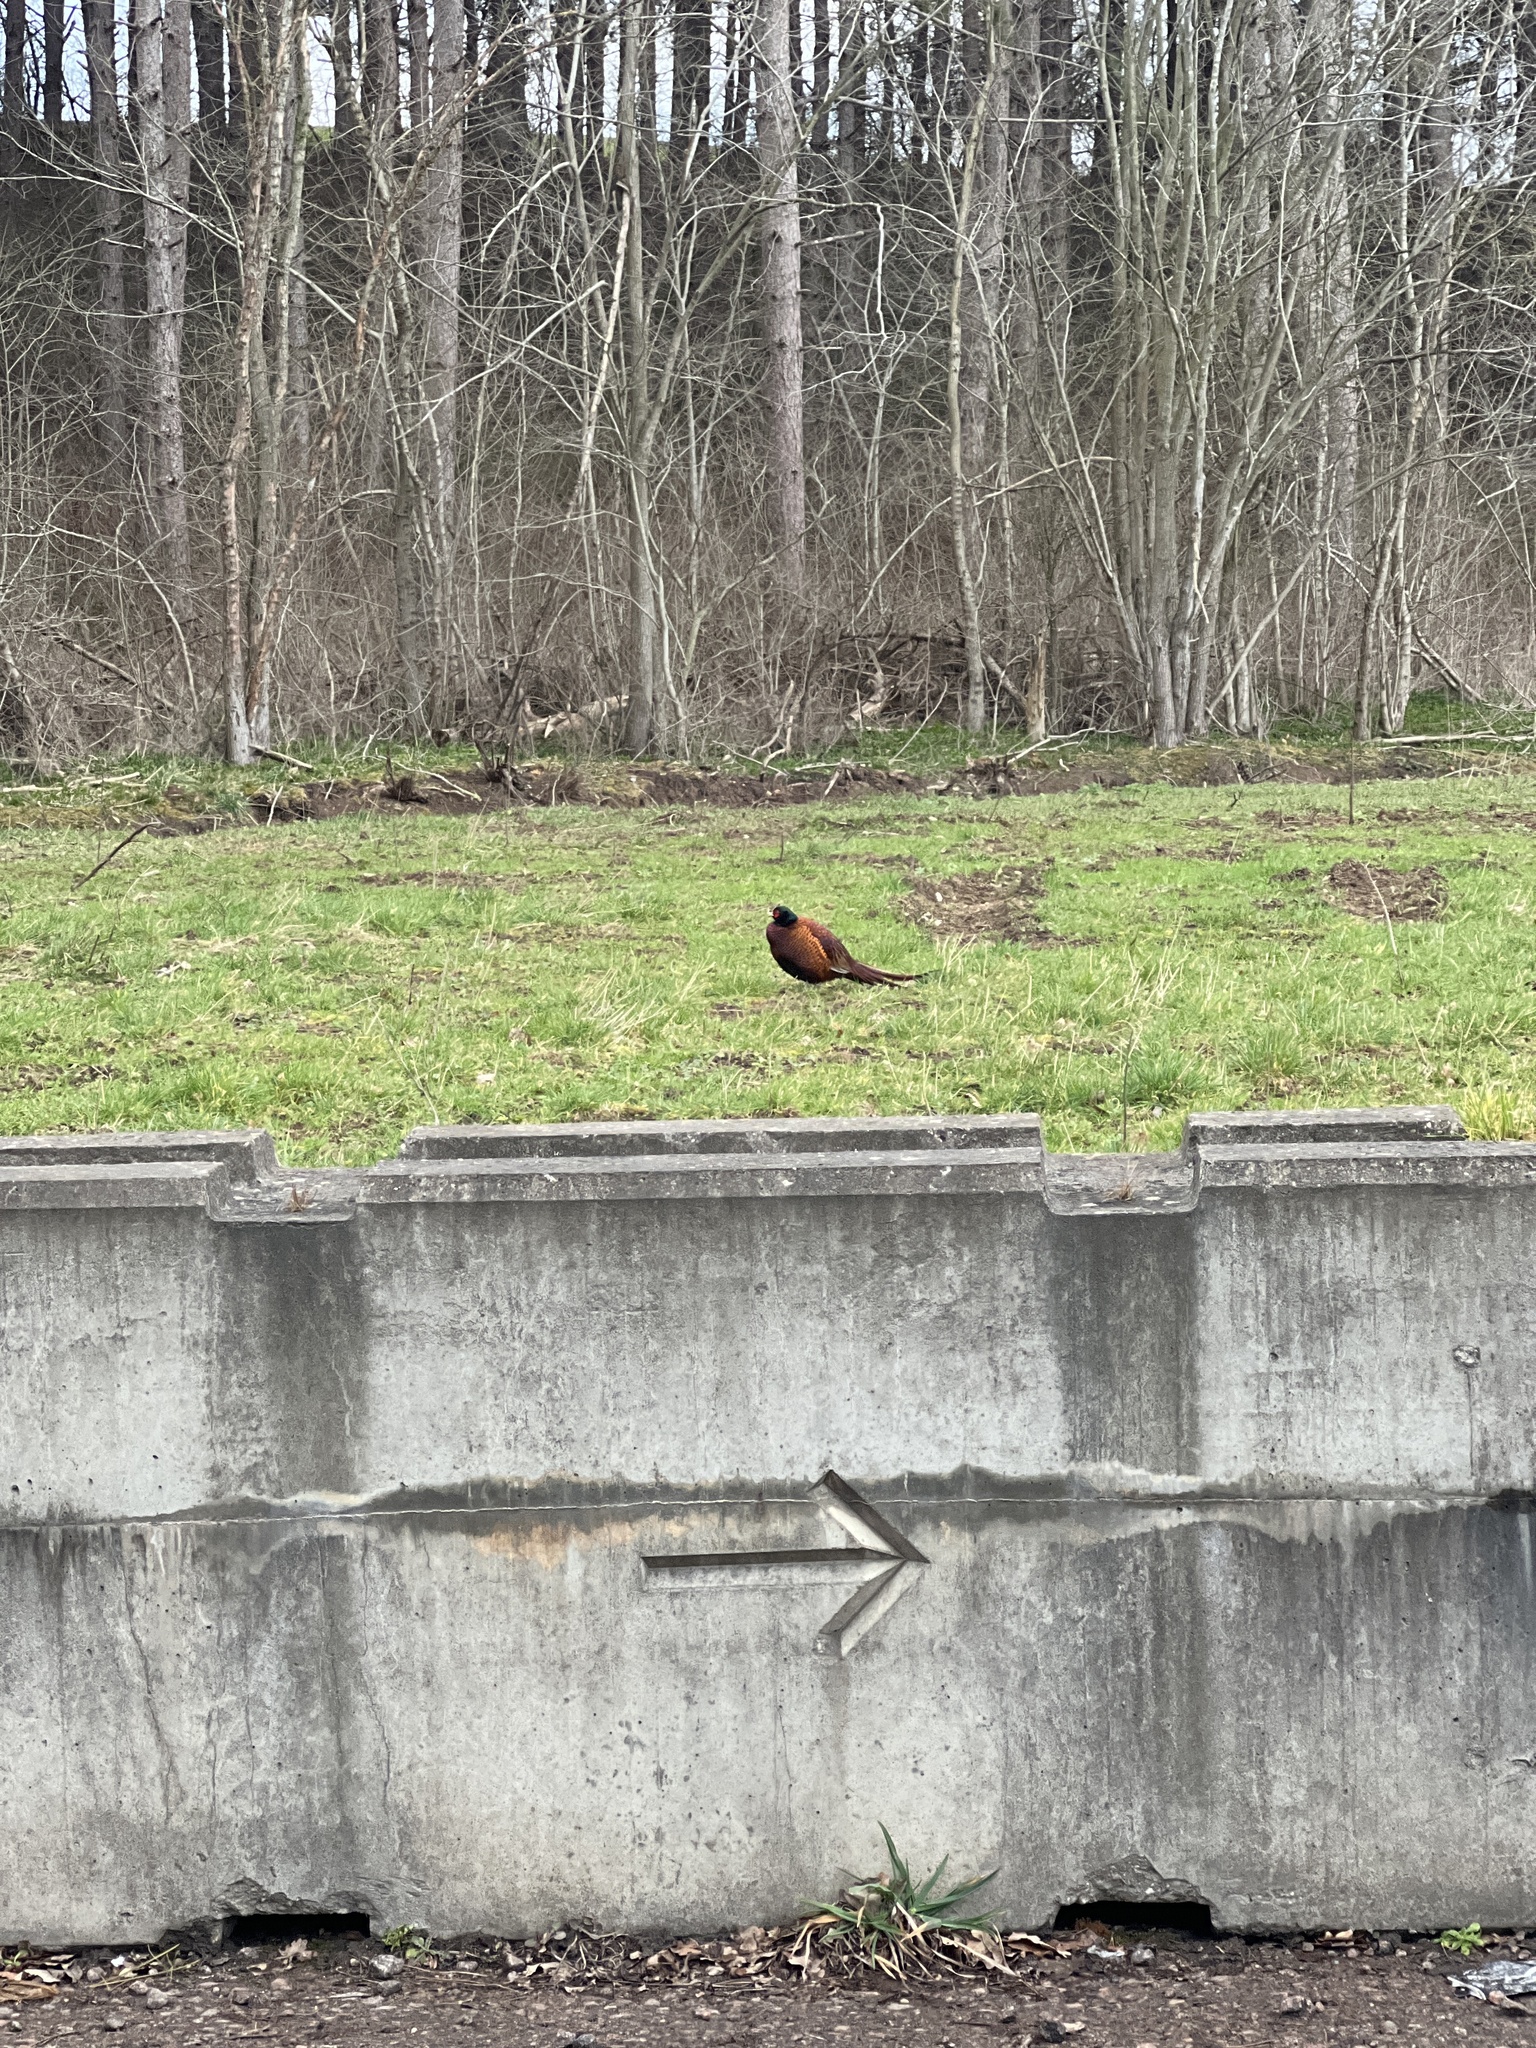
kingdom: Animalia
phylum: Chordata
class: Aves
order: Galliformes
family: Phasianidae
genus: Phasianus
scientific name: Phasianus colchicus
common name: Common pheasant
